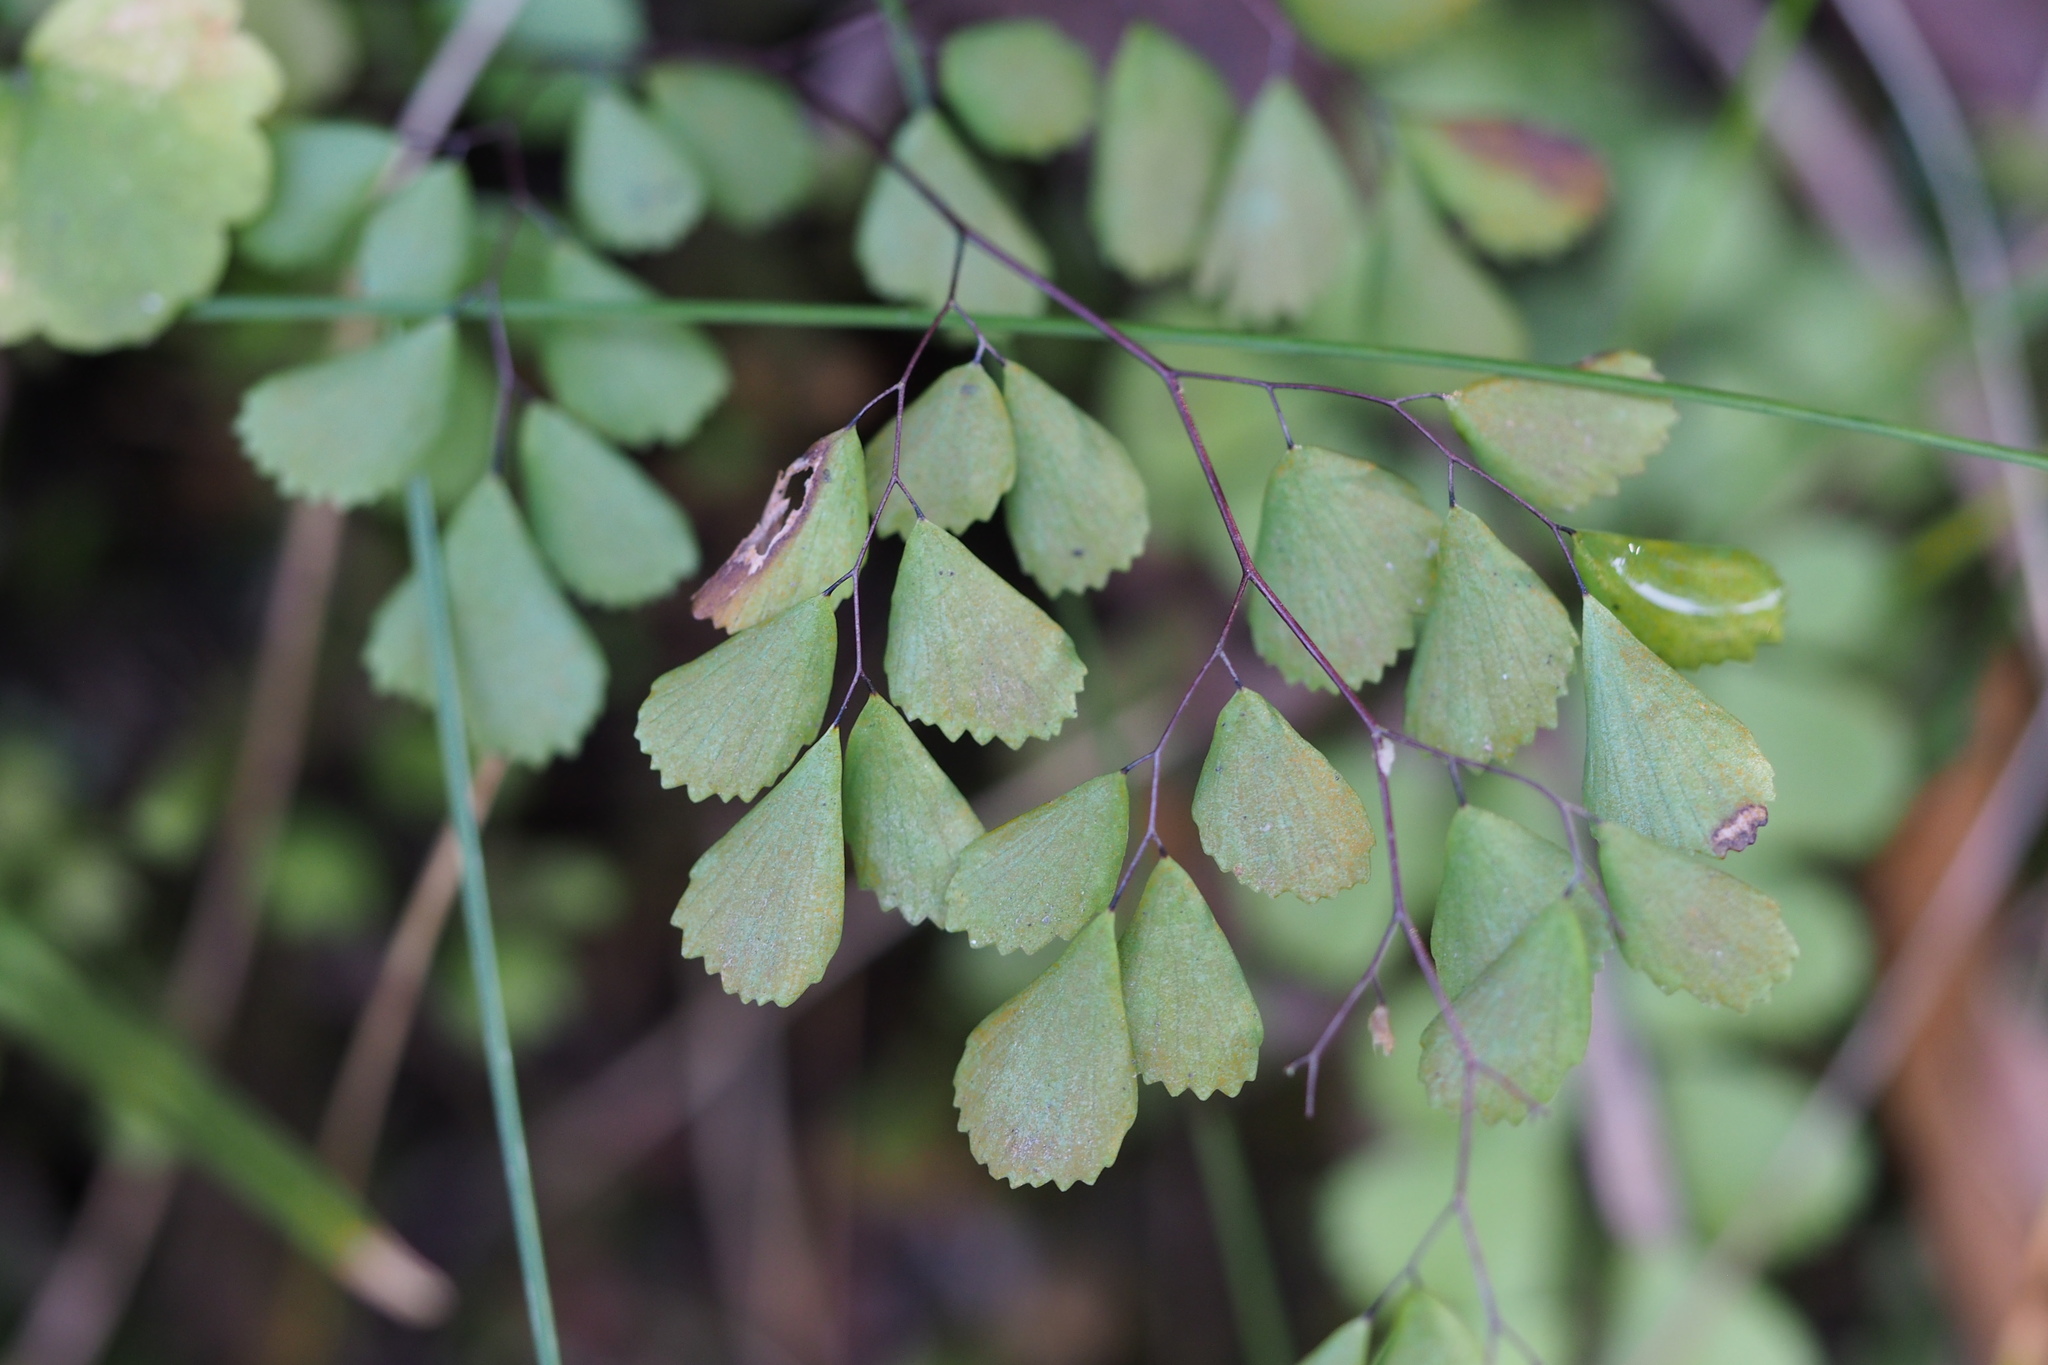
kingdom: Plantae
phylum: Tracheophyta
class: Polypodiopsida
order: Polypodiales
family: Pteridaceae
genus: Adiantum
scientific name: Adiantum monochlamys
